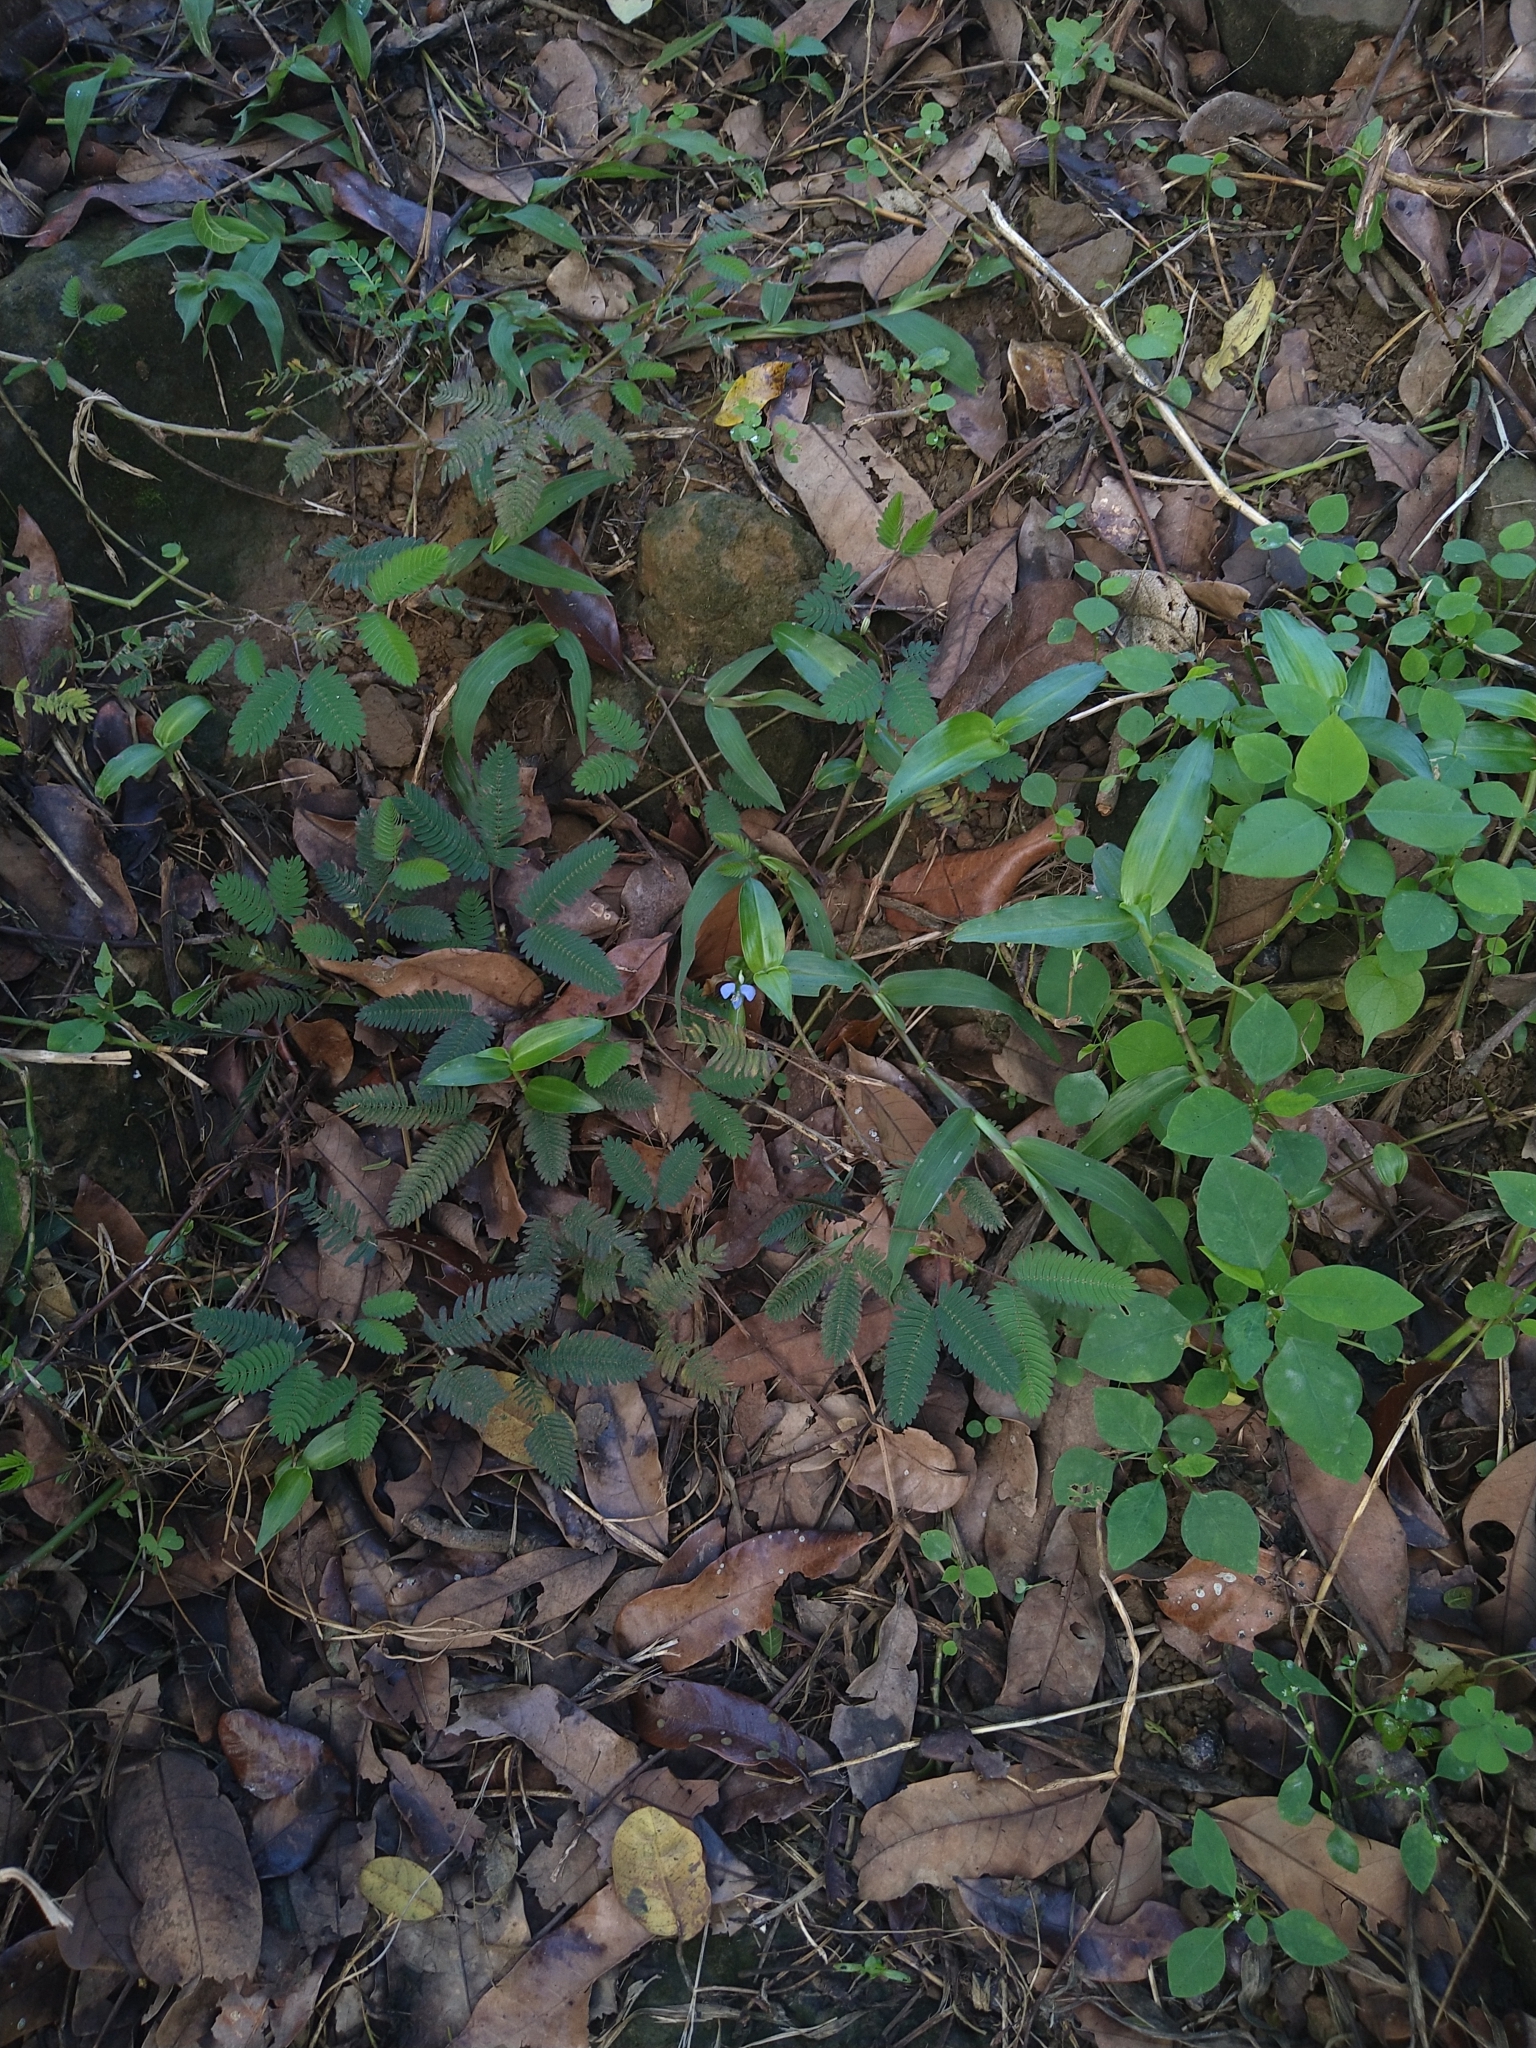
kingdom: Plantae
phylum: Tracheophyta
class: Liliopsida
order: Commelinales
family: Commelinaceae
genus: Commelina
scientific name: Commelina diffusa
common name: Climbing dayflower
